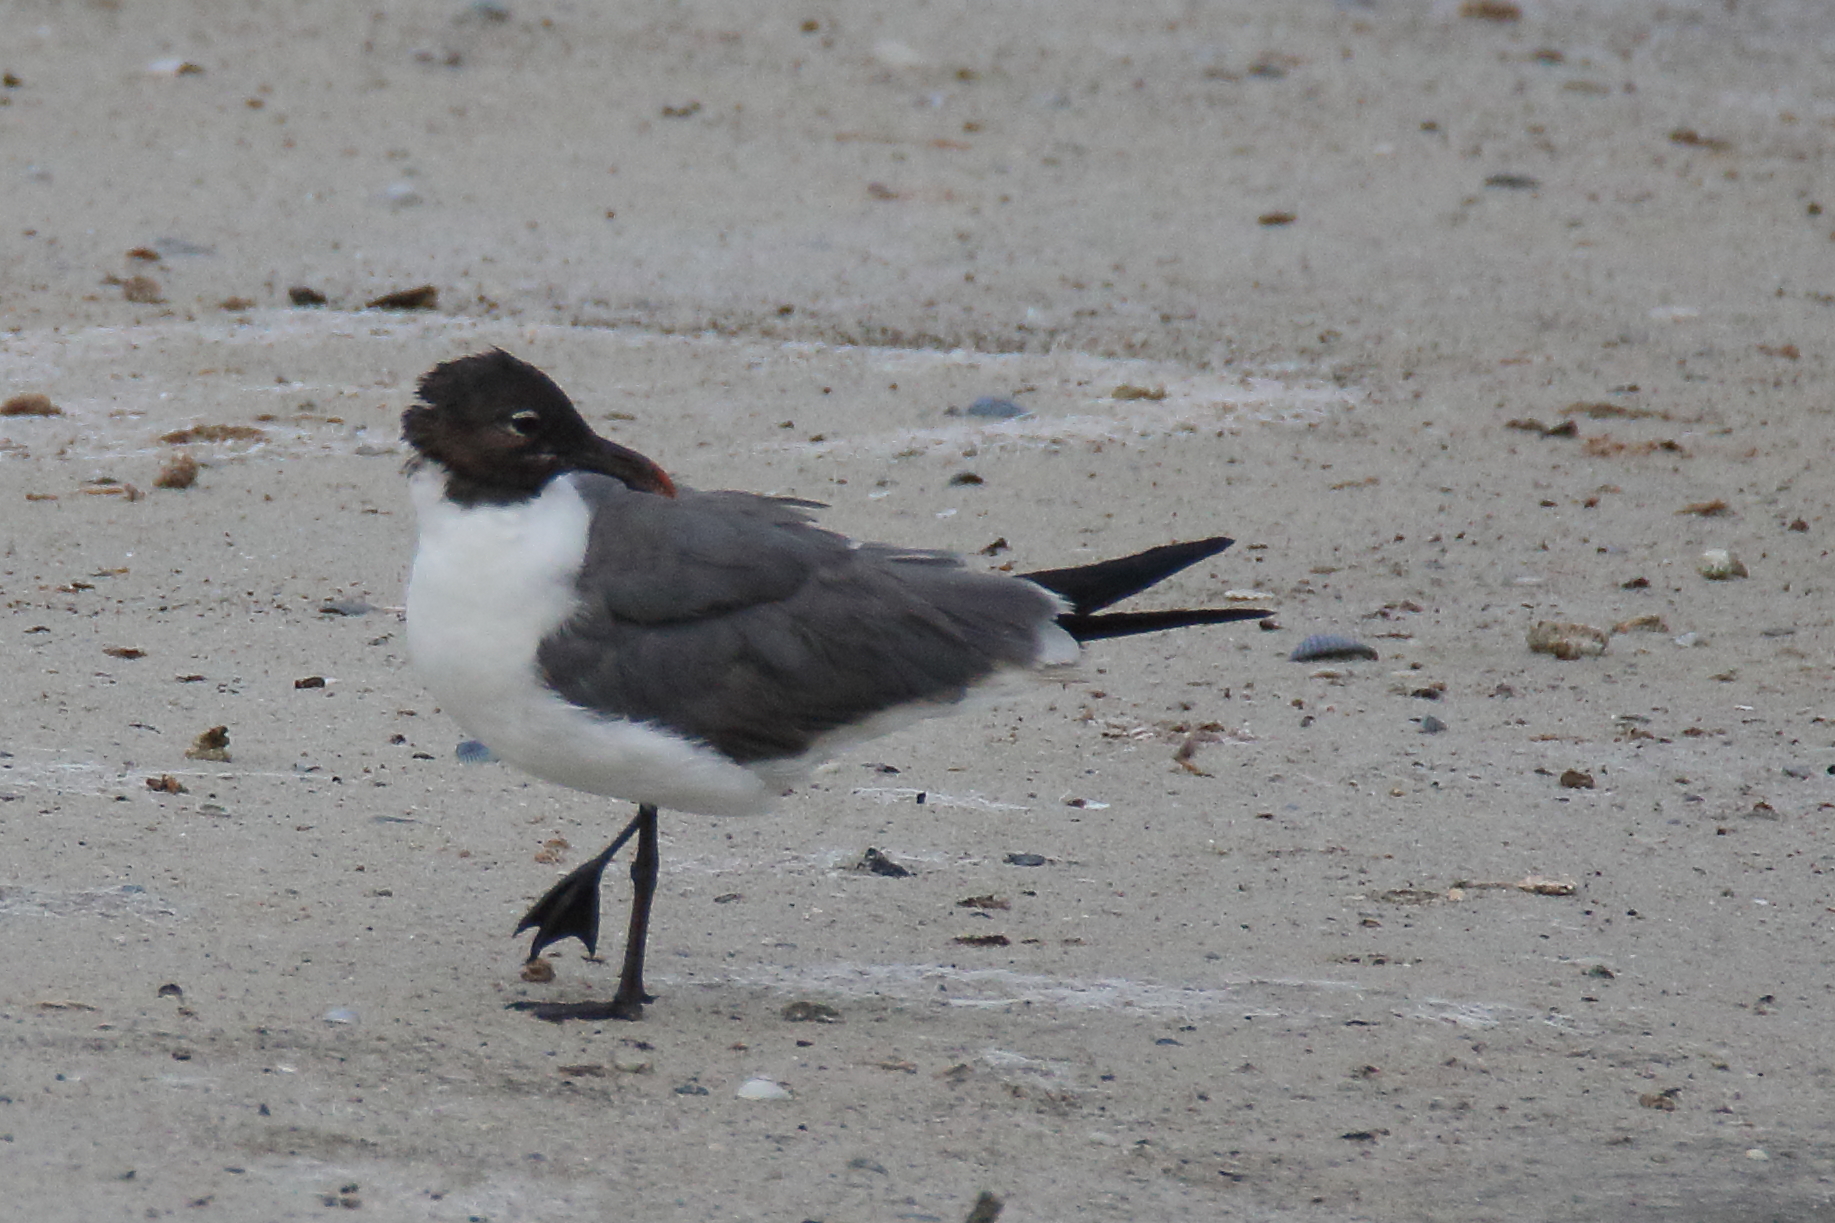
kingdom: Animalia
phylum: Chordata
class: Aves
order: Charadriiformes
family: Laridae
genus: Leucophaeus
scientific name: Leucophaeus atricilla
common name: Laughing gull
